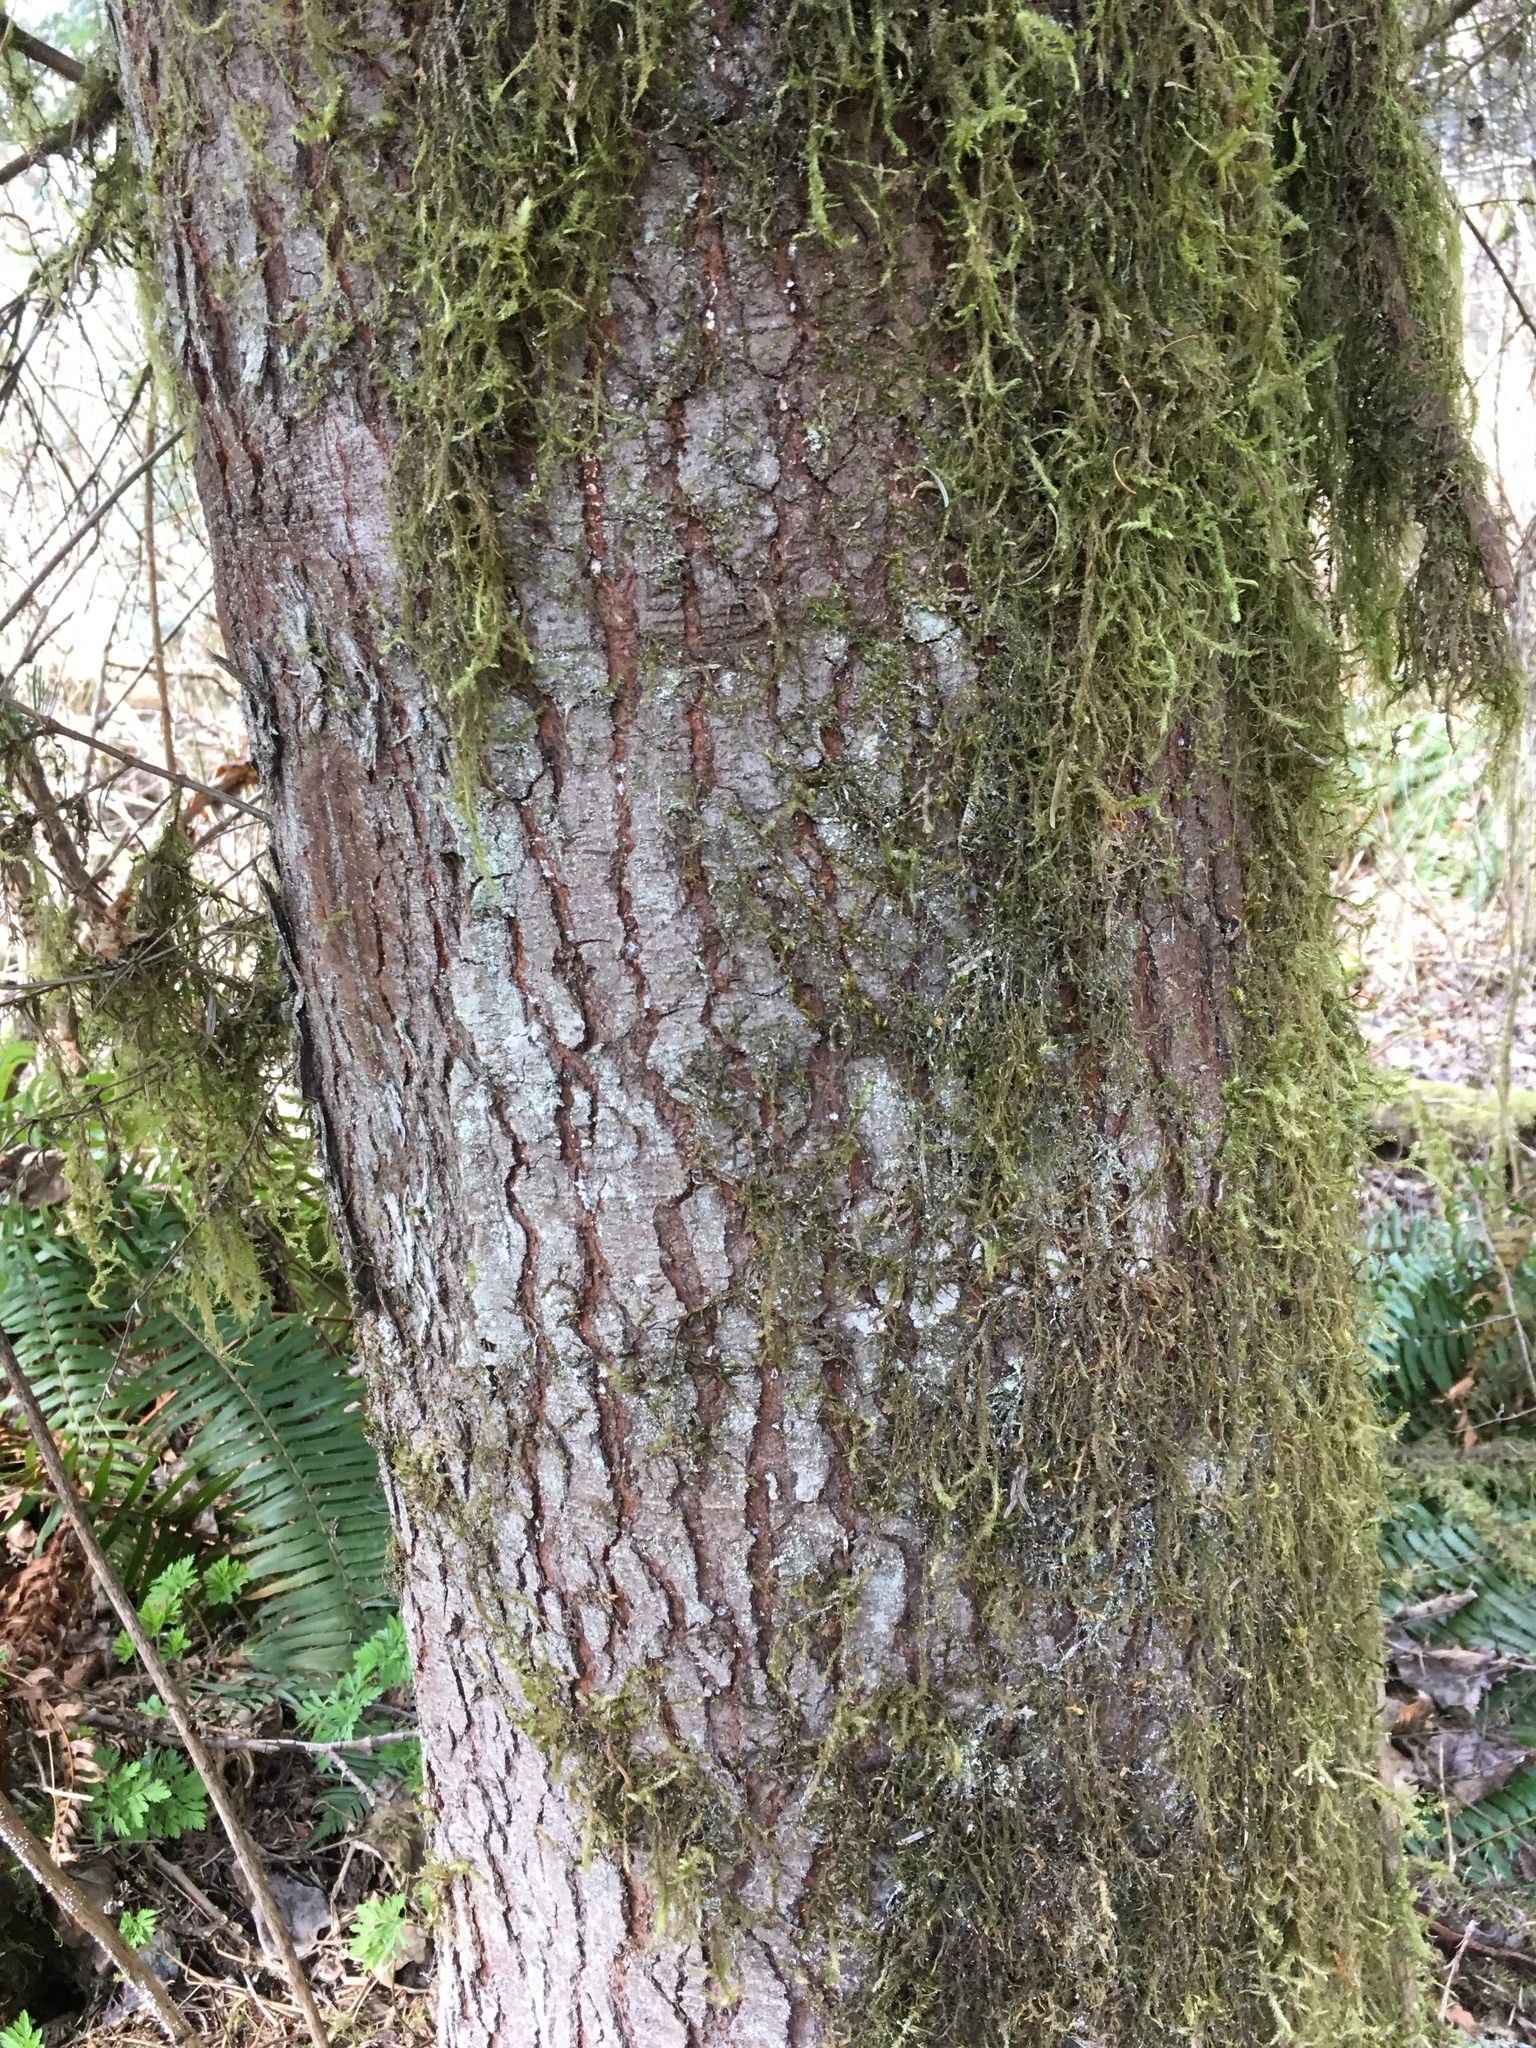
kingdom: Plantae
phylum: Tracheophyta
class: Pinopsida
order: Pinales
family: Pinaceae
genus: Abies
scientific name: Abies grandis
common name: Giant fir
